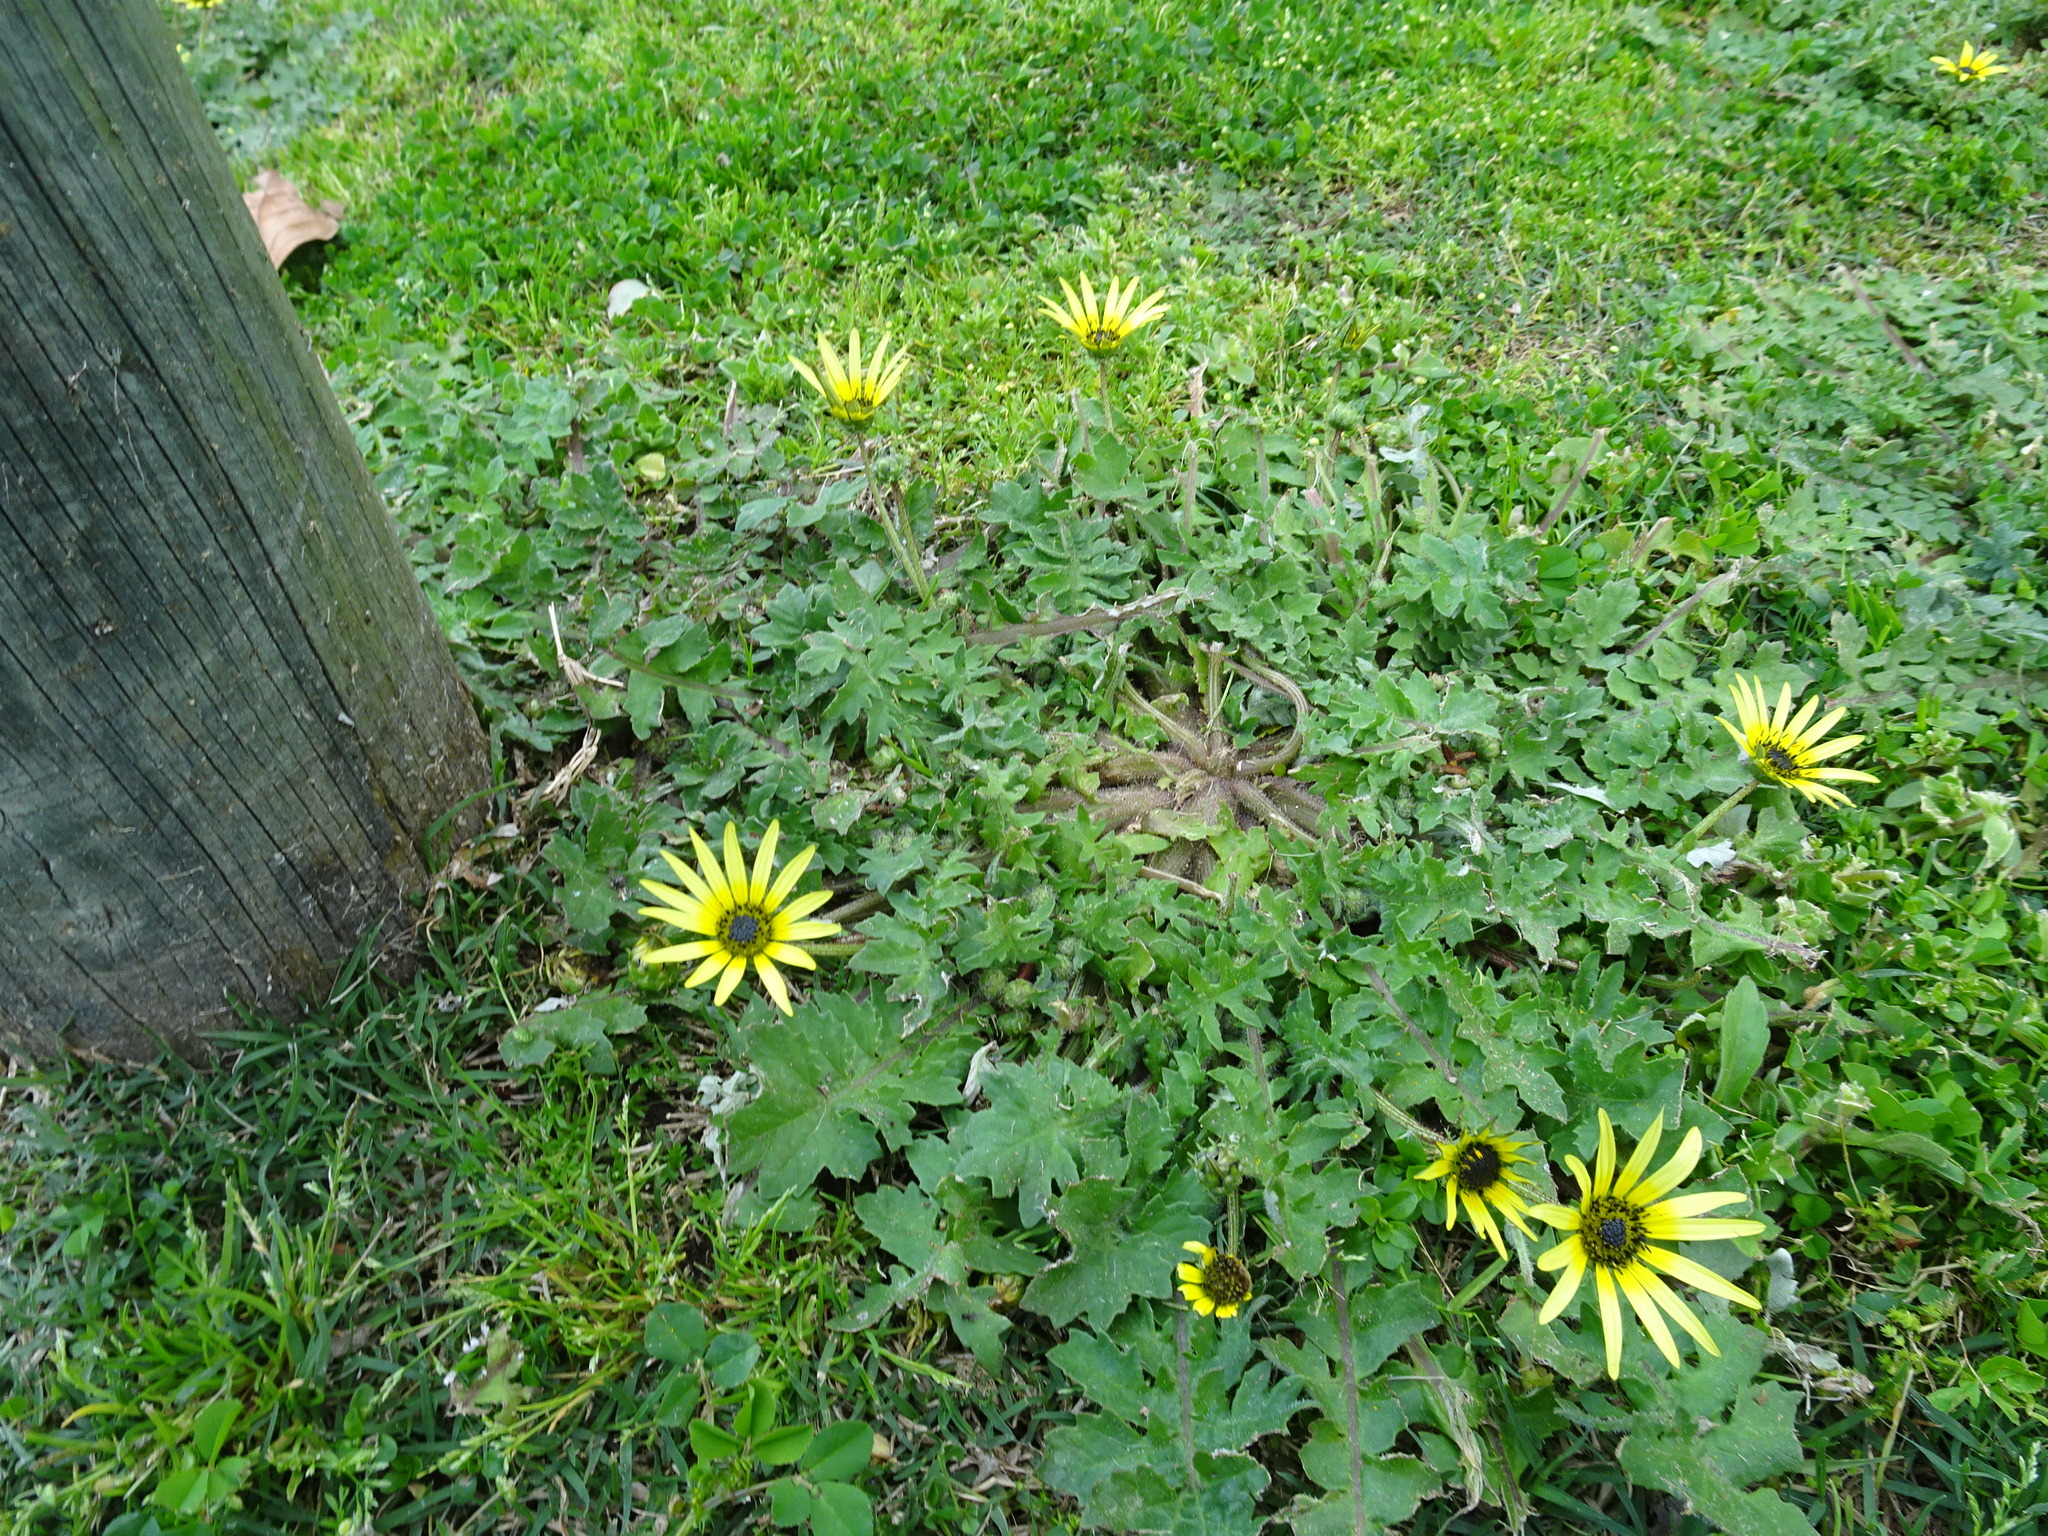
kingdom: Plantae
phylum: Tracheophyta
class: Magnoliopsida
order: Asterales
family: Asteraceae
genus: Arctotheca
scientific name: Arctotheca calendula
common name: Capeweed
